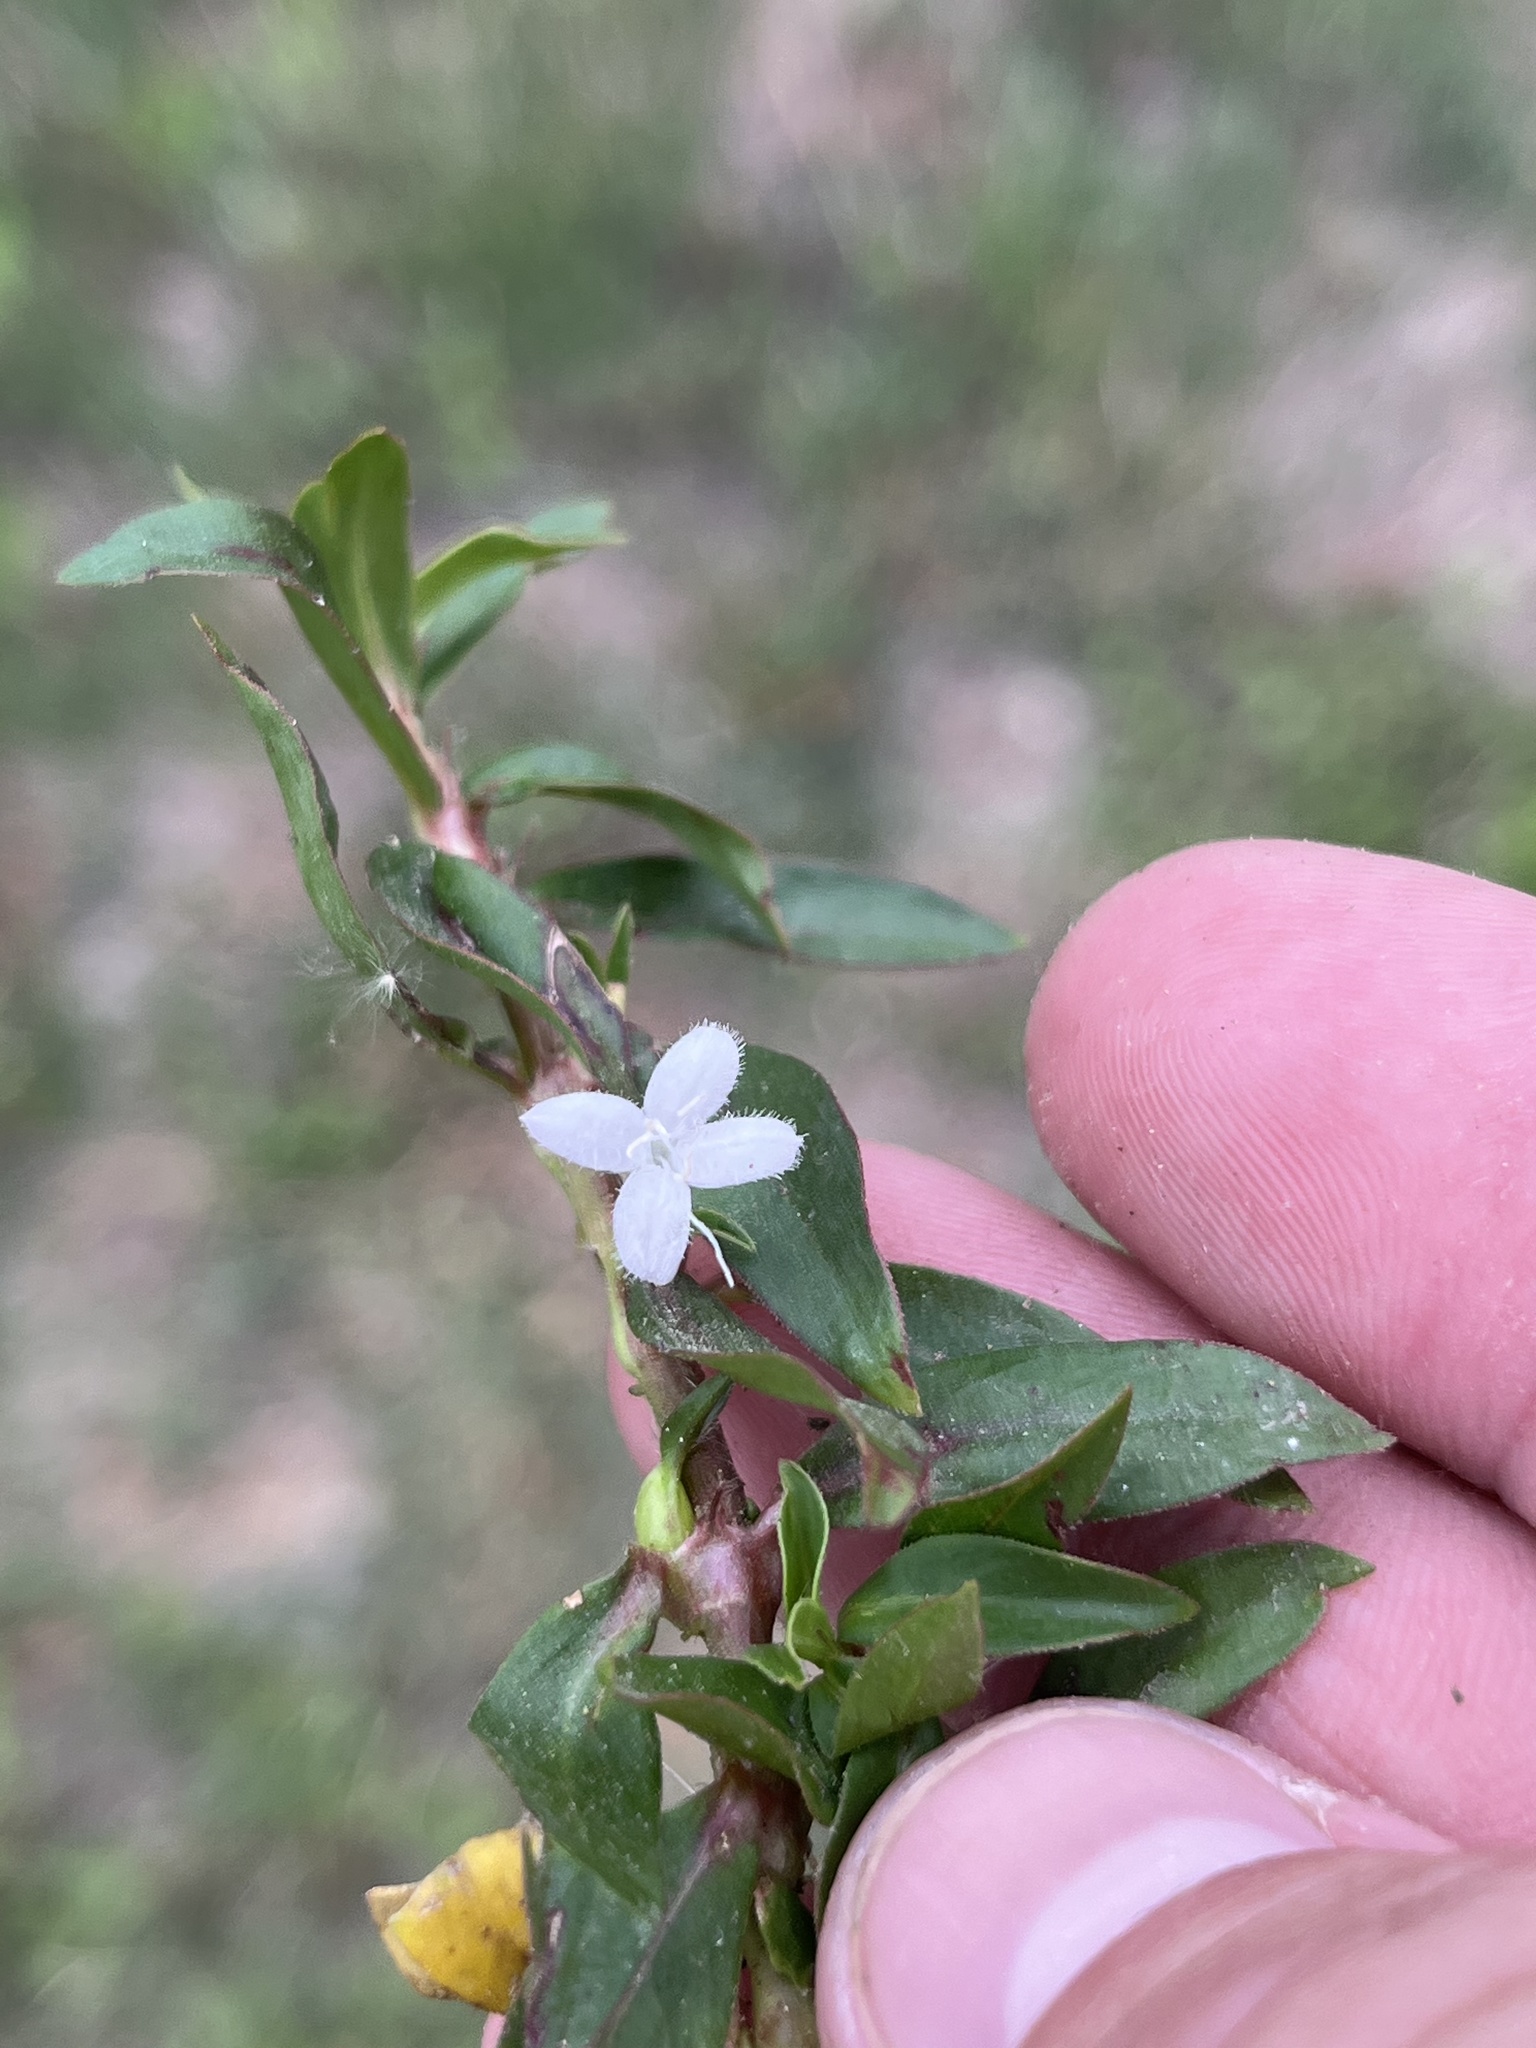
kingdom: Plantae
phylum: Tracheophyta
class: Magnoliopsida
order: Gentianales
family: Rubiaceae
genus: Diodia
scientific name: Diodia virginiana
